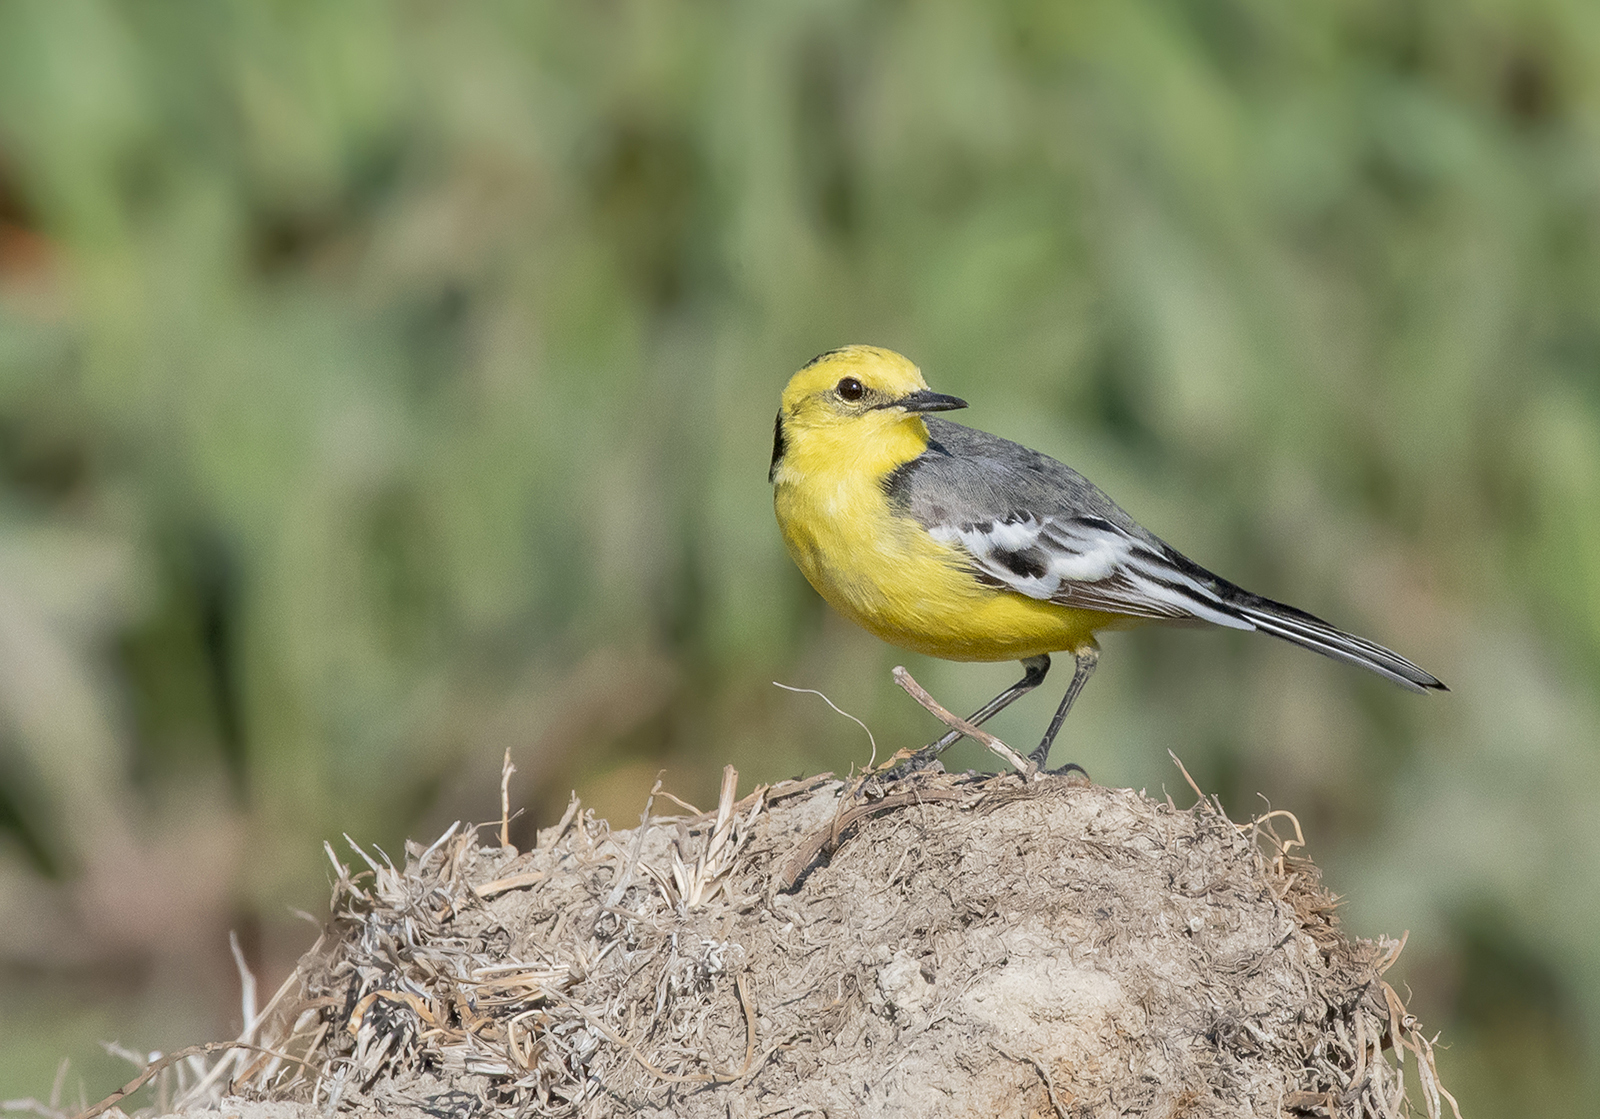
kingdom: Animalia
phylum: Chordata
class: Aves
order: Passeriformes
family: Motacillidae
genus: Motacilla
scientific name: Motacilla citreola
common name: Citrine wagtail
